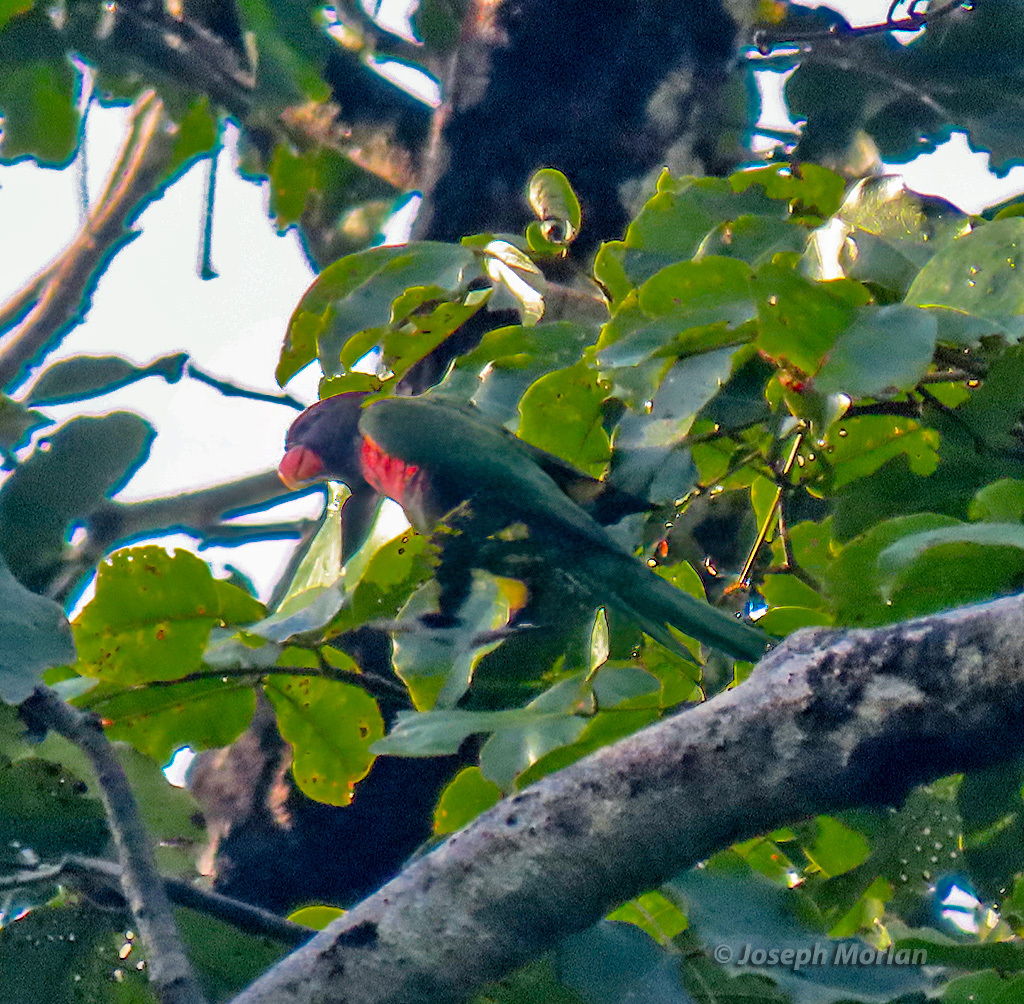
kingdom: Animalia
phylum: Chordata
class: Aves
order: Psittaciformes
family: Psittacidae
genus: Trichoglossus
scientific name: Trichoglossus haematodus
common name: Coconut lorikeet
